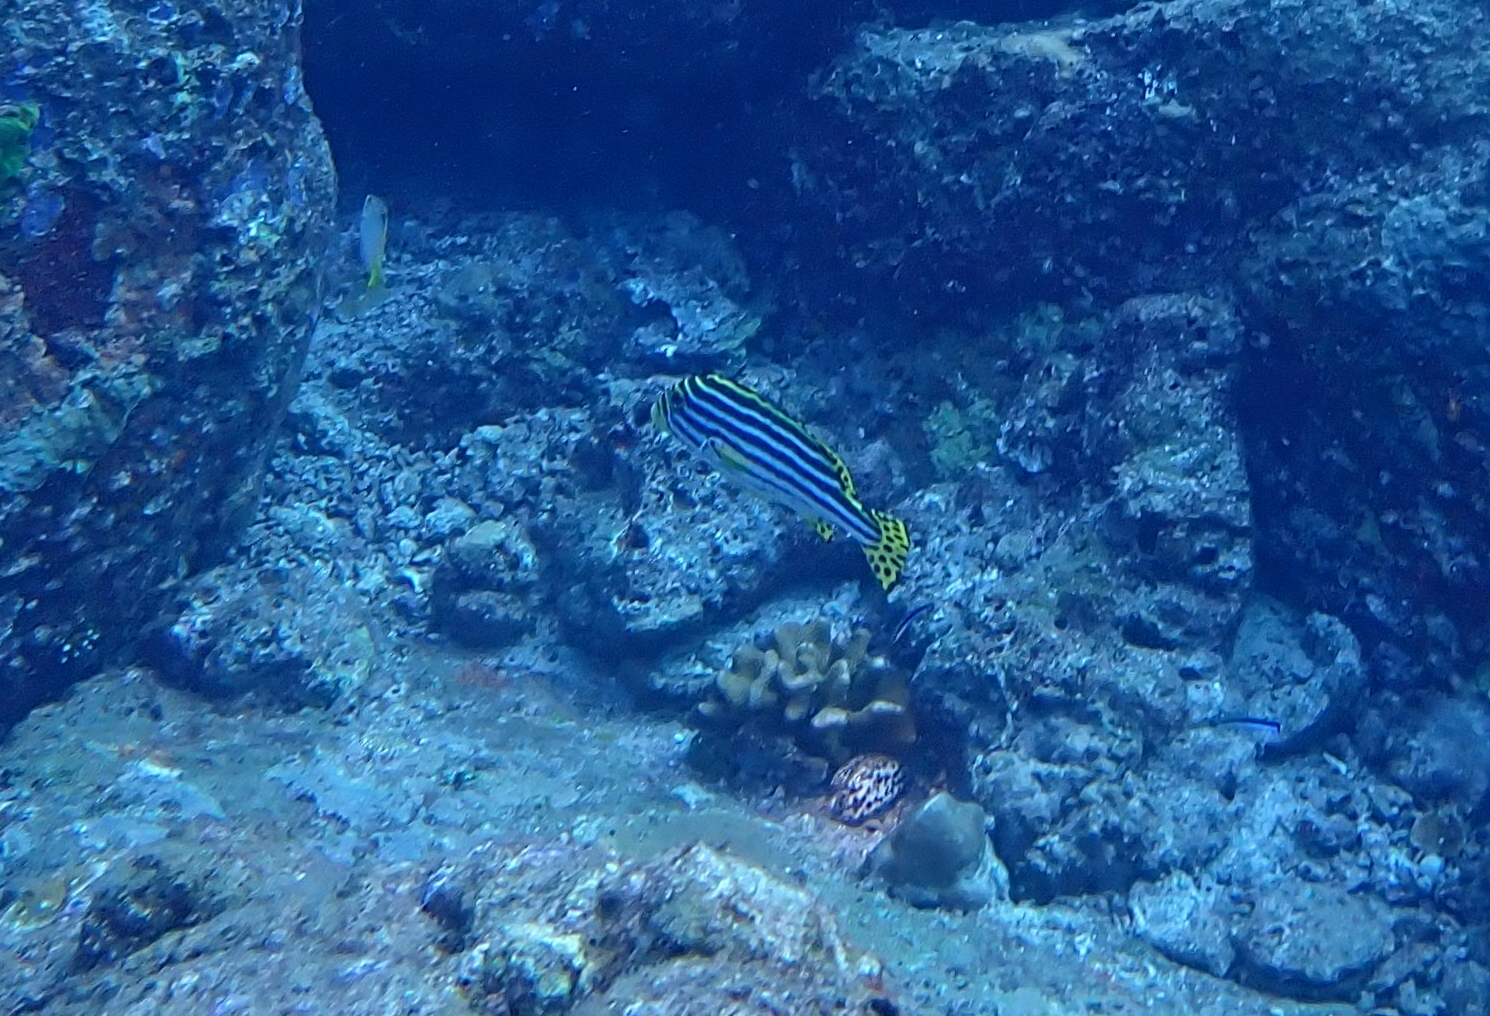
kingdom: Animalia
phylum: Chordata
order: Perciformes
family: Haemulidae
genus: Plectorhinchus
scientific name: Plectorhinchus vittatus
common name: Oriental sweetlips
